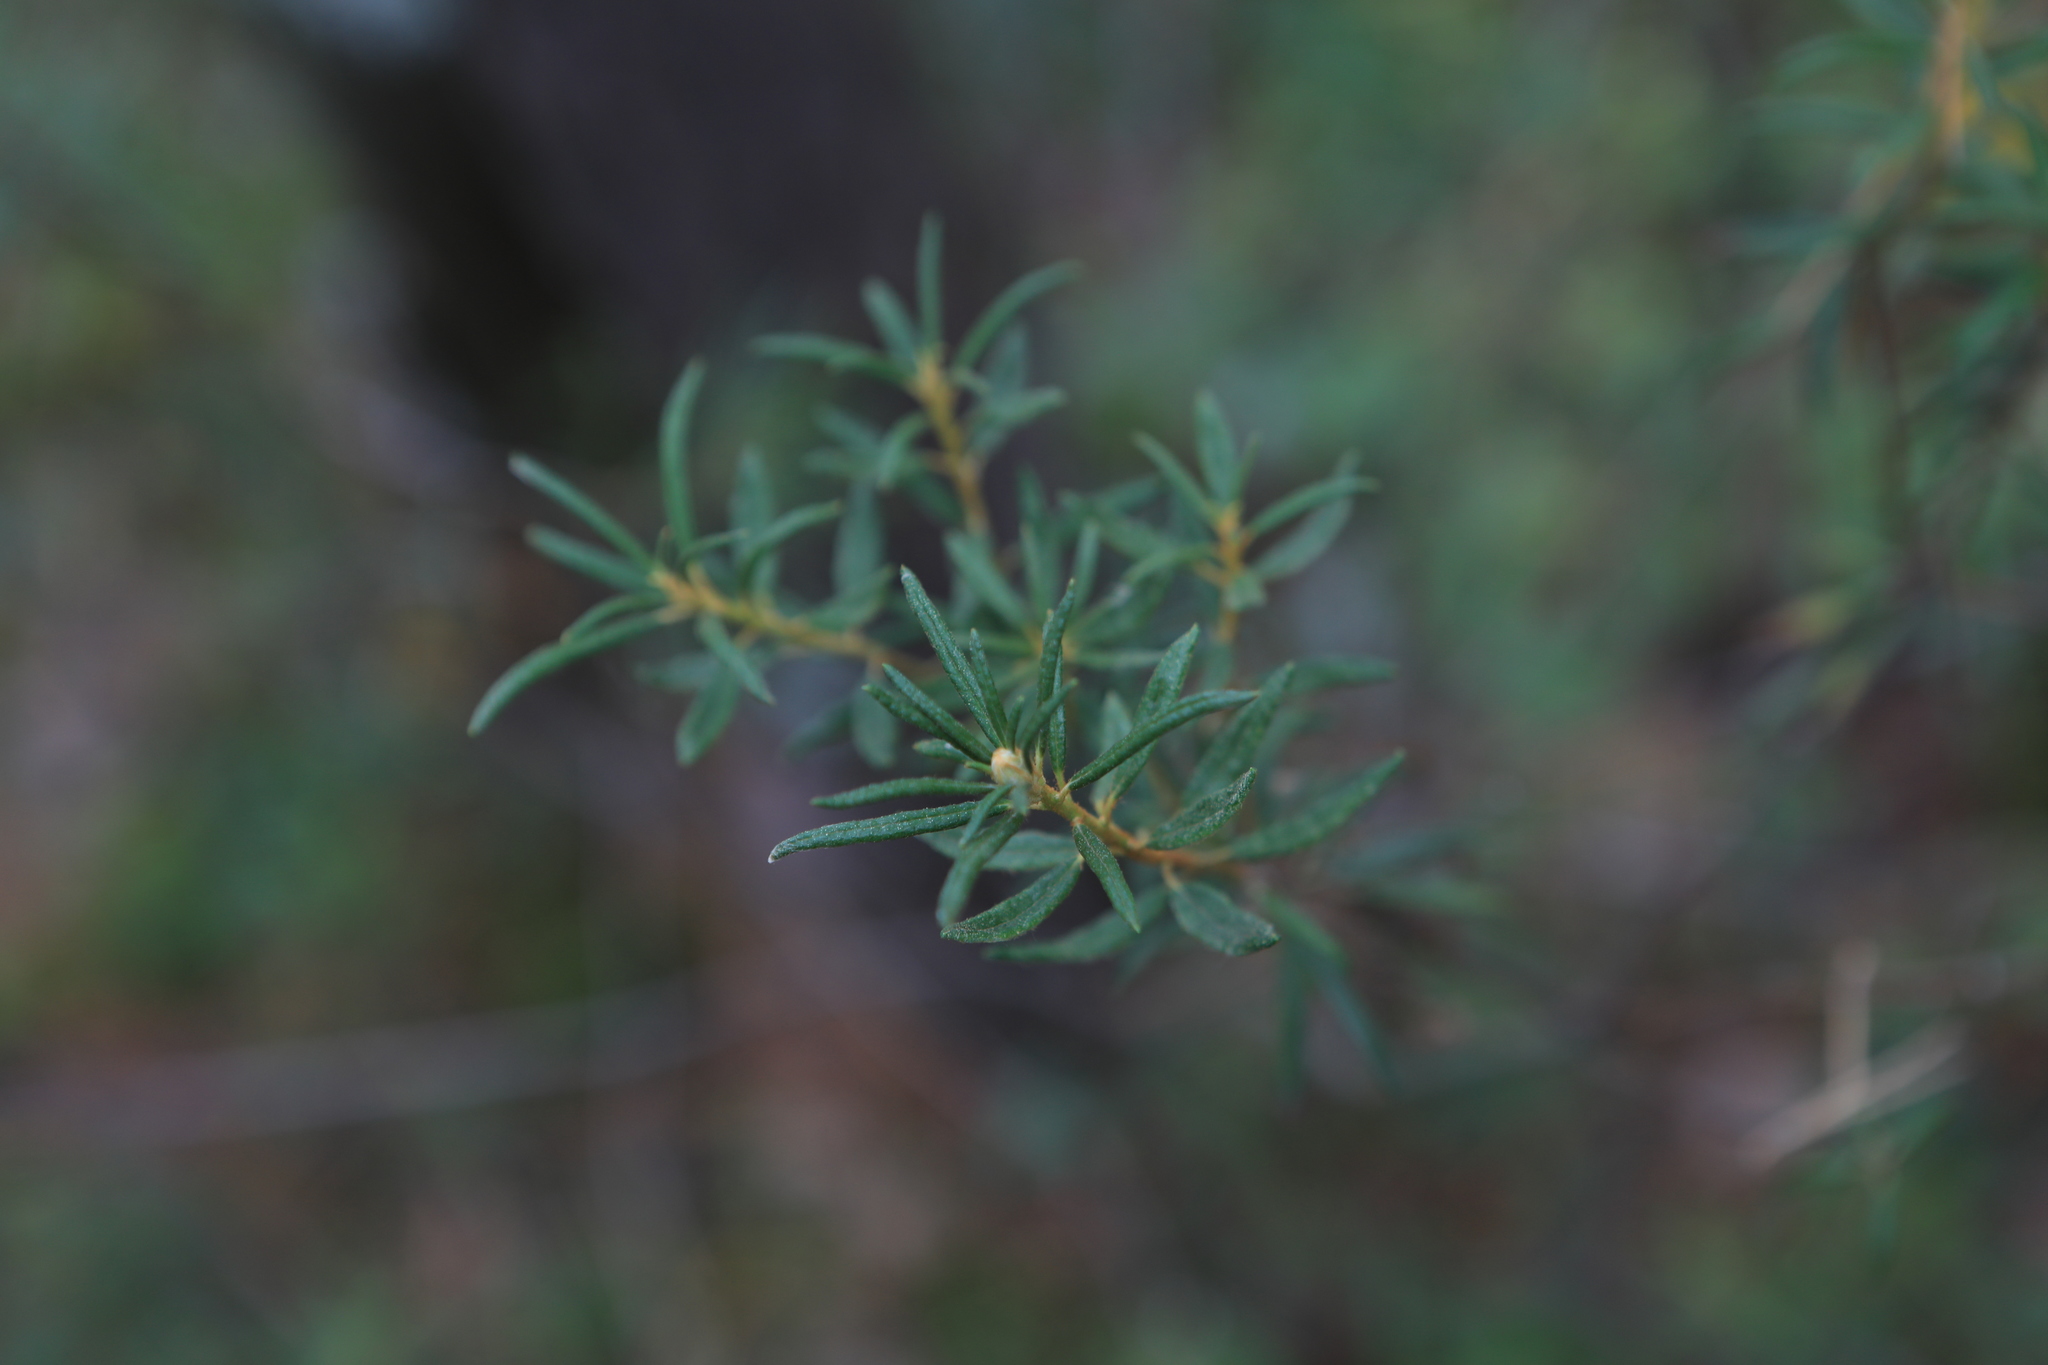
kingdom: Plantae
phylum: Tracheophyta
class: Magnoliopsida
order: Ericales
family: Ericaceae
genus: Rhododendron
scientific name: Rhododendron tomentosum
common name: Marsh labrador tea
